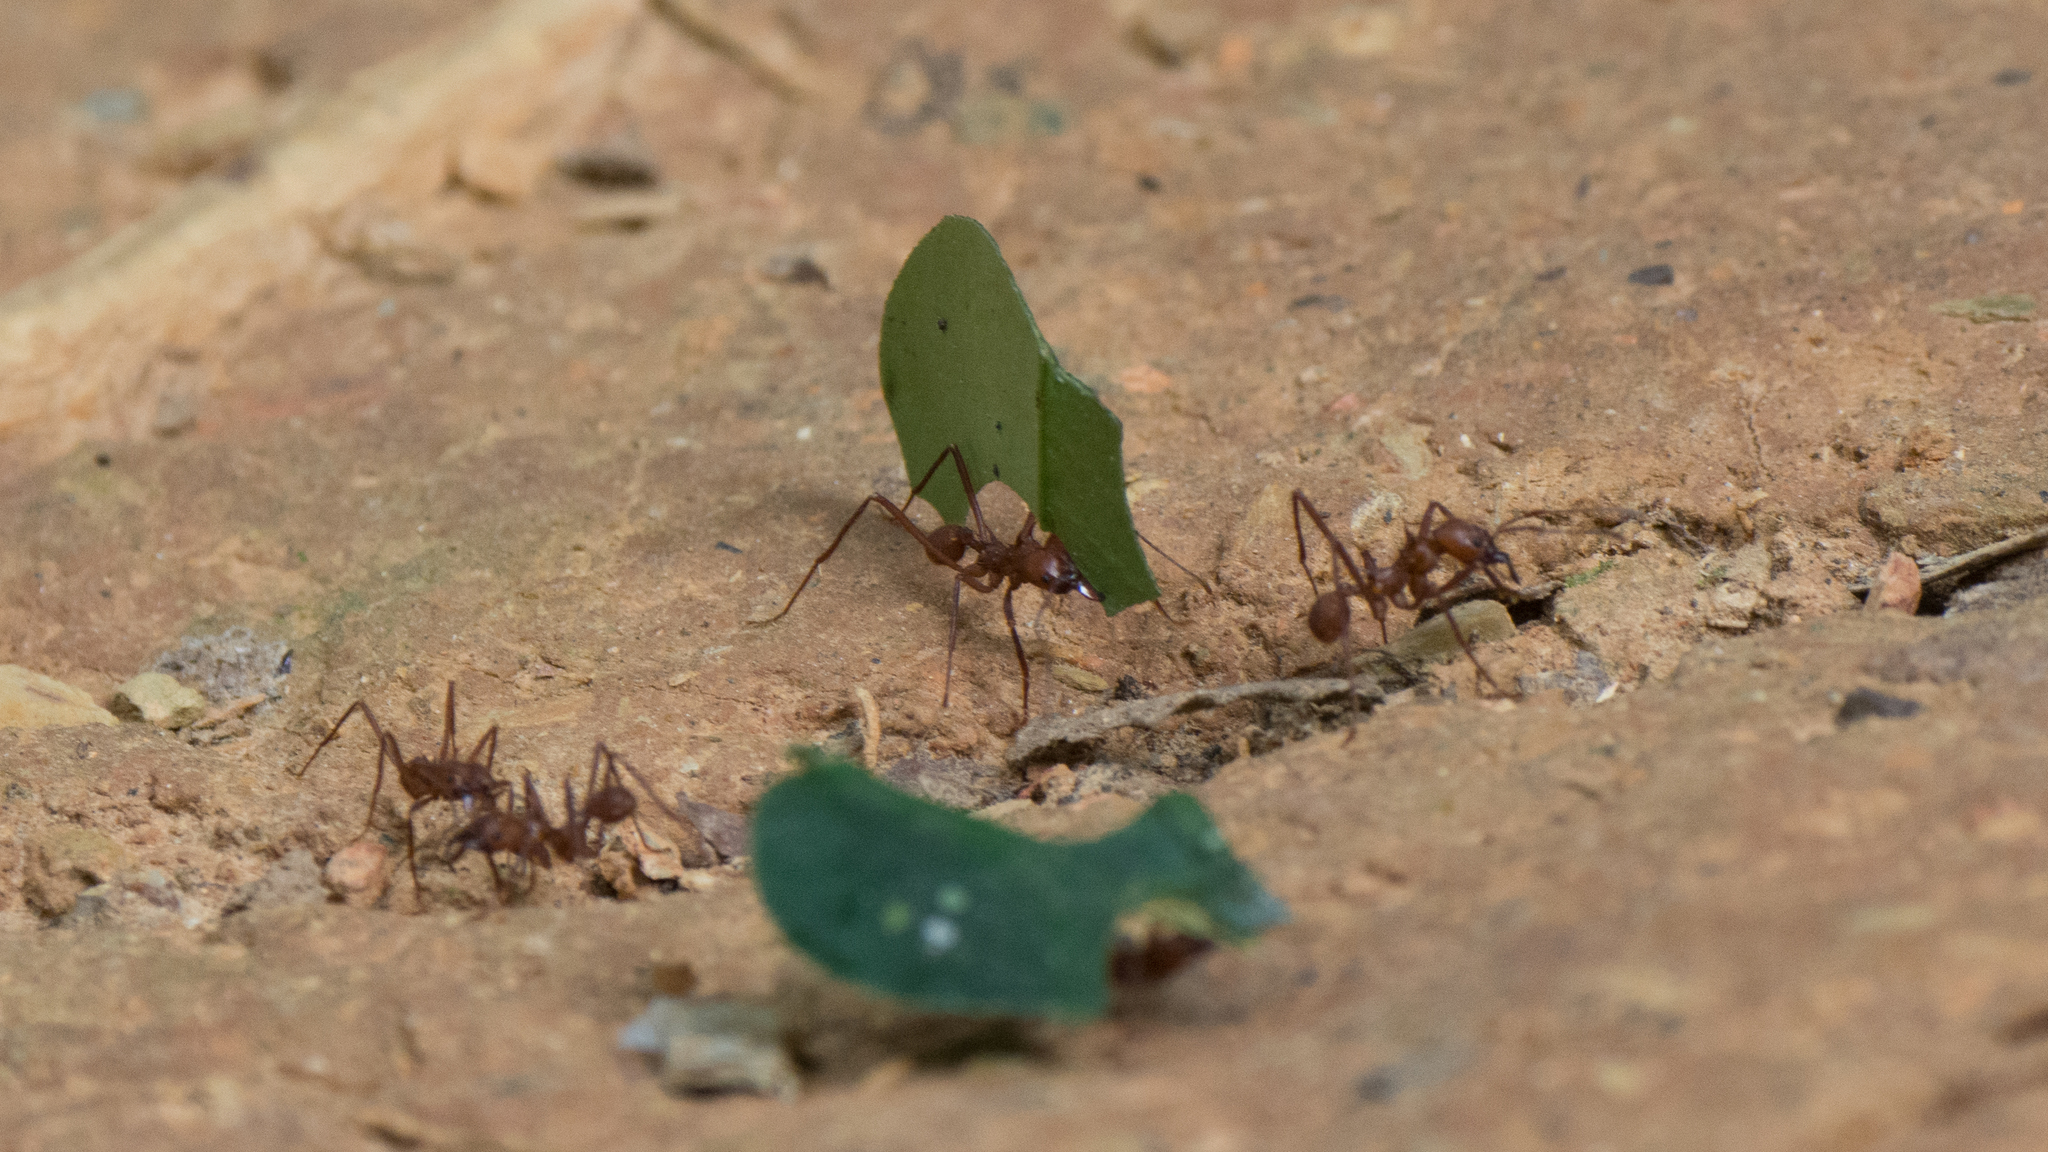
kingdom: Animalia
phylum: Arthropoda
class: Insecta
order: Hymenoptera
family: Formicidae
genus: Atta
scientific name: Atta cephalotes
